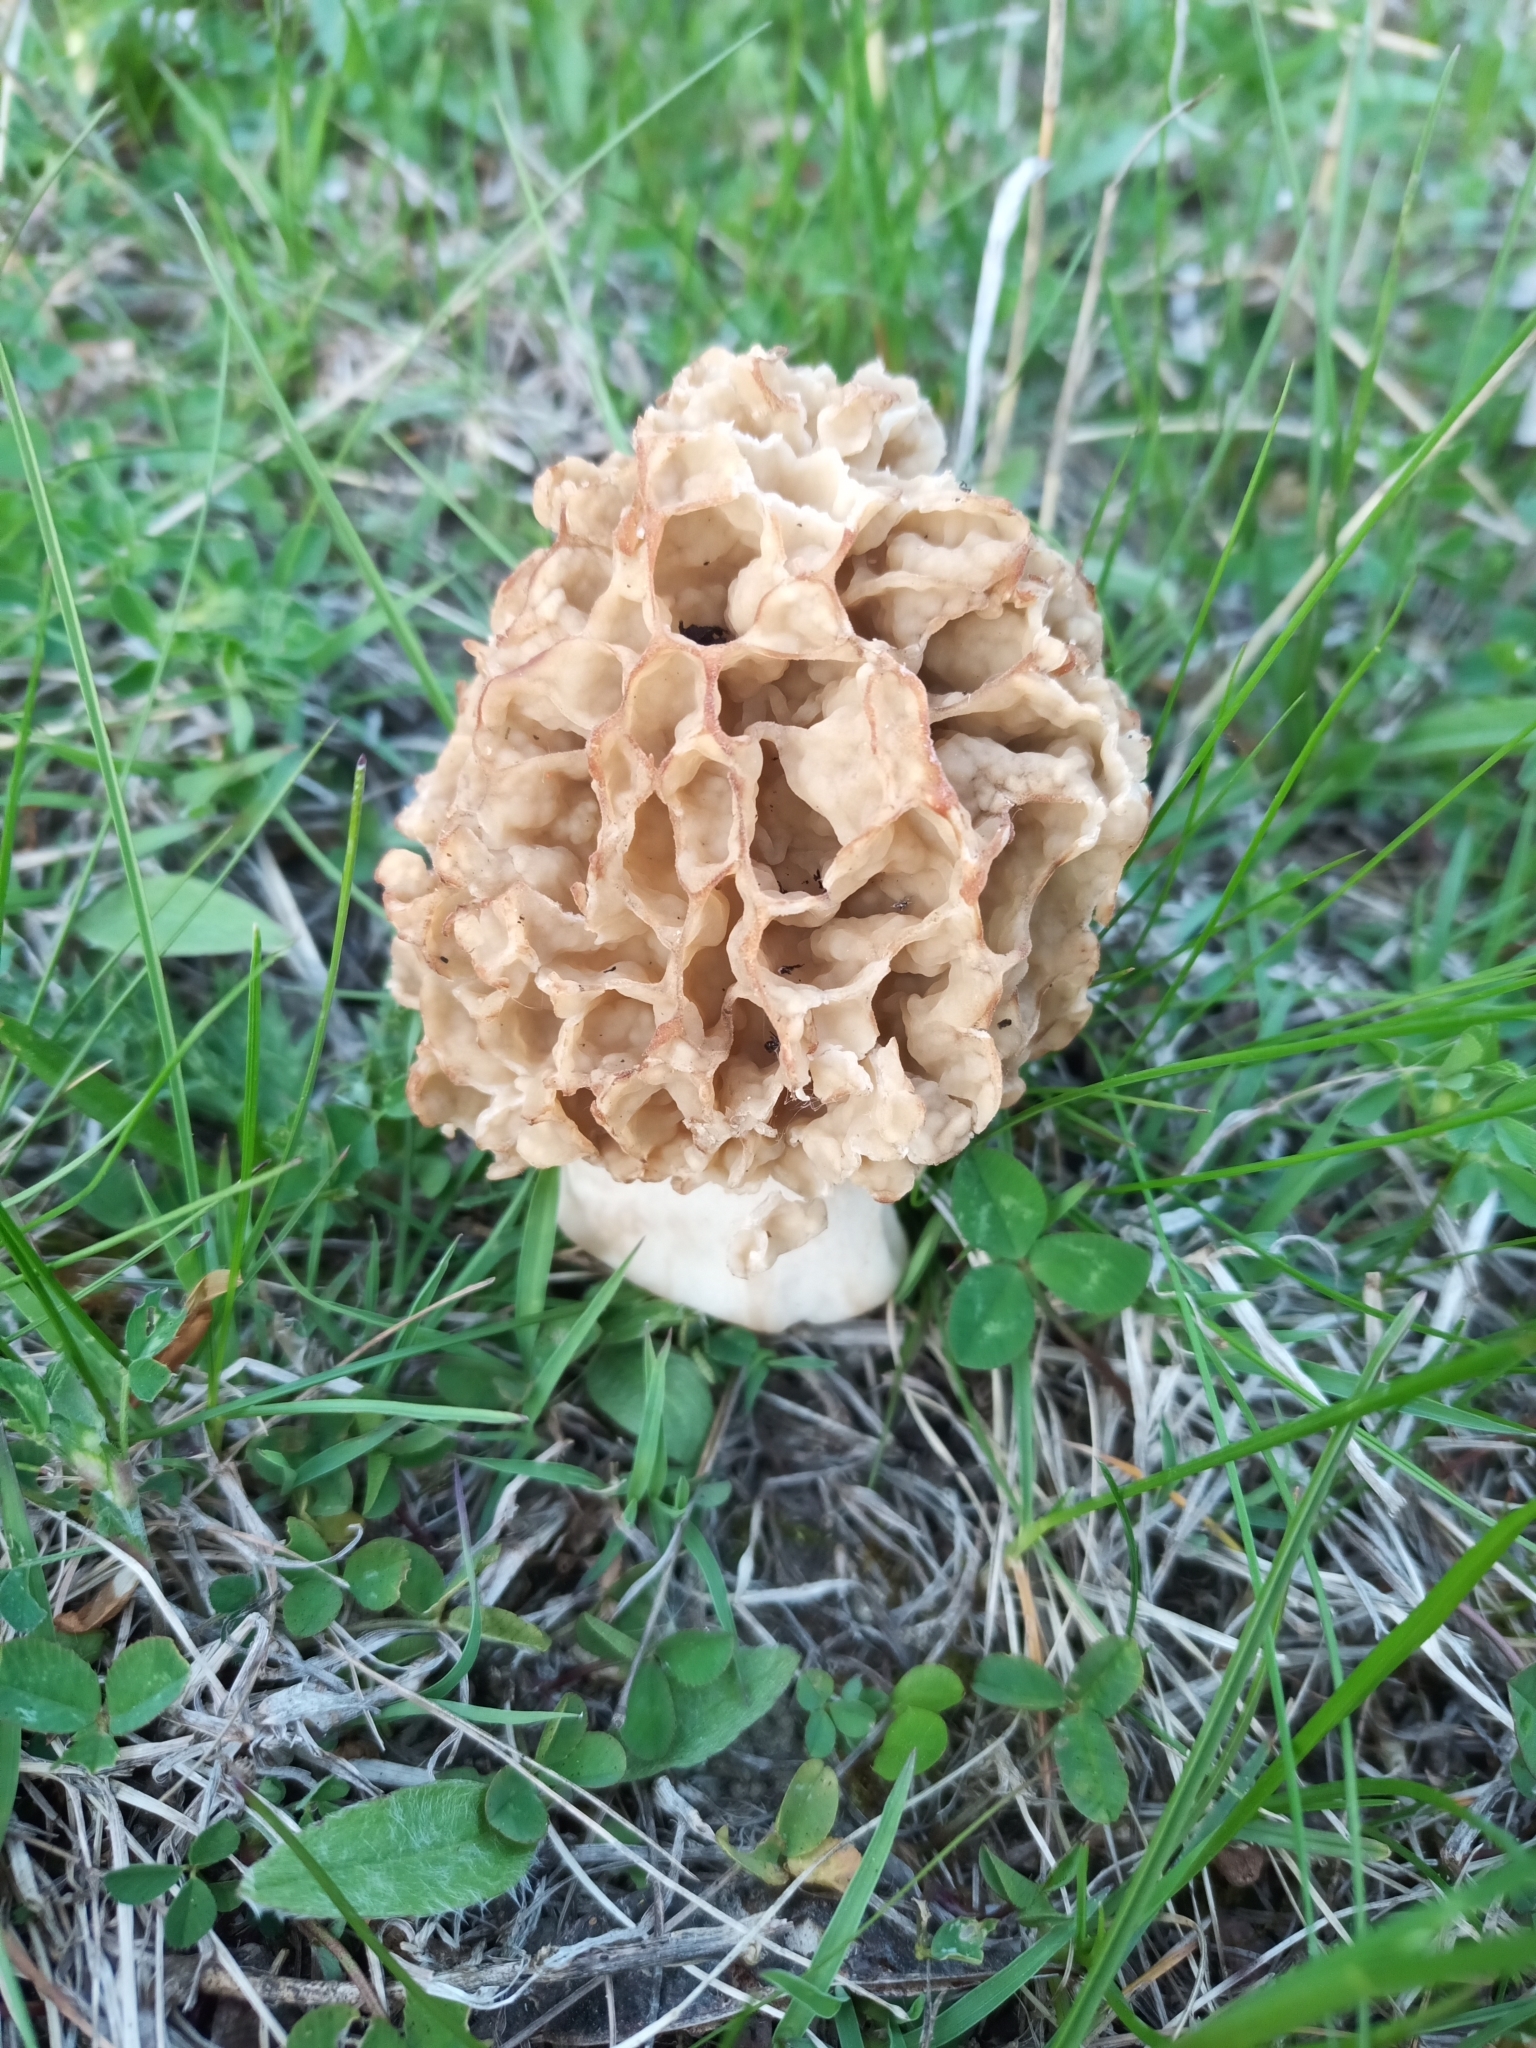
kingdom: Fungi
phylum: Ascomycota
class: Pezizomycetes
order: Pezizales
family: Morchellaceae
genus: Morchella
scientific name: Morchella esculenta
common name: Morel
